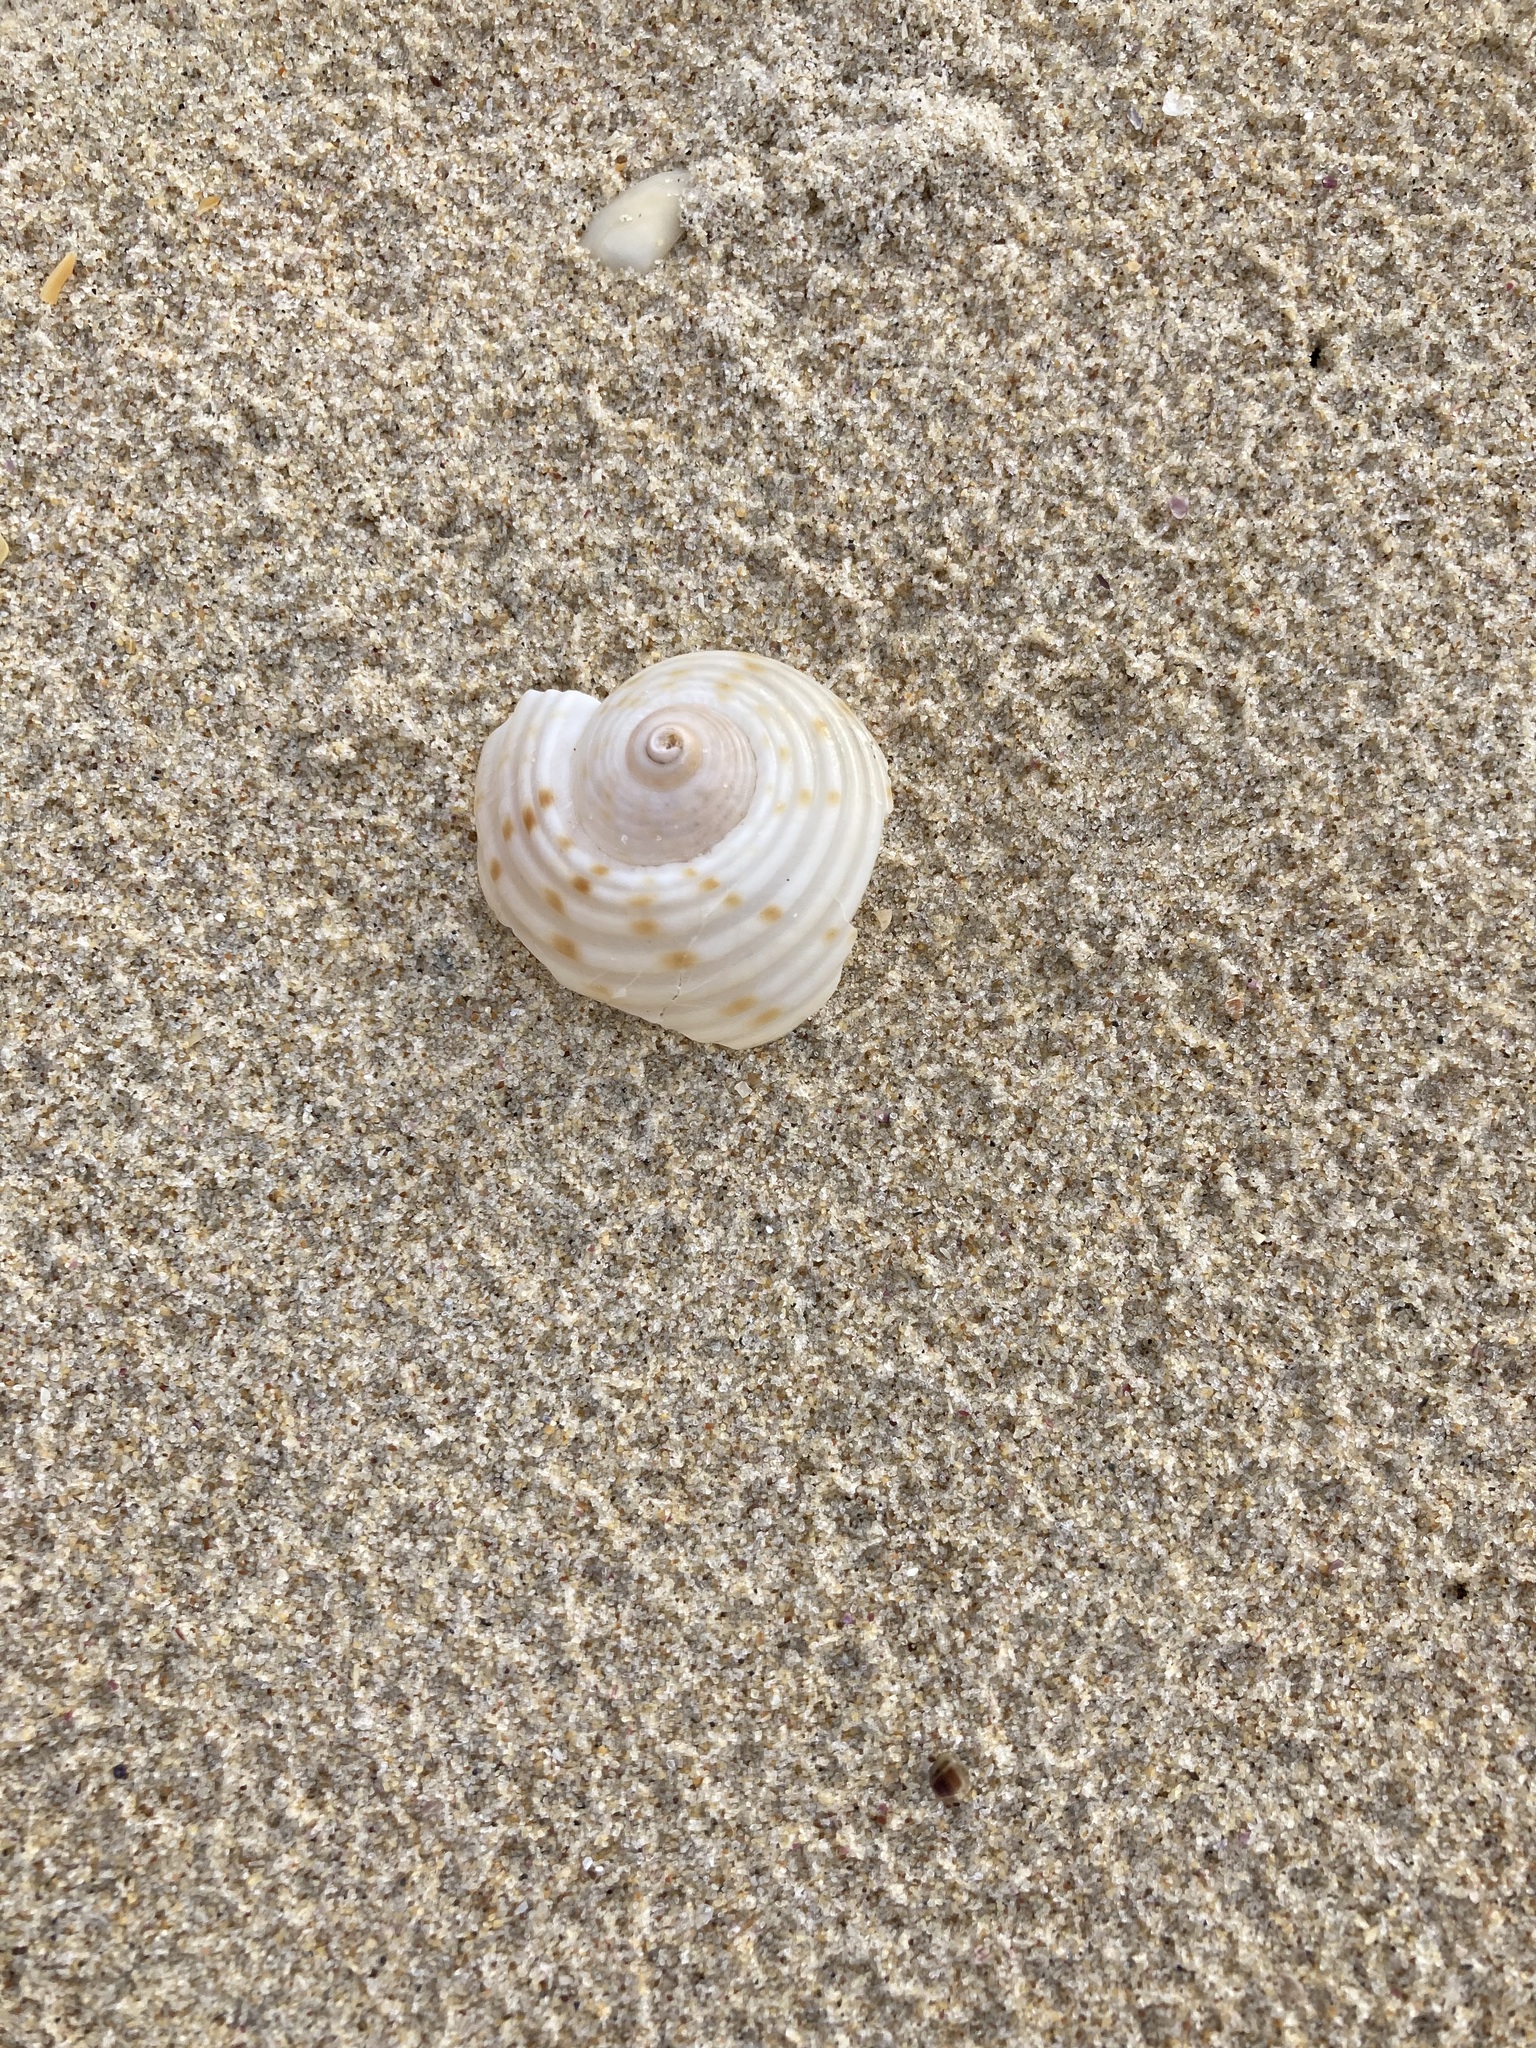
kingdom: Animalia
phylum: Mollusca
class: Gastropoda
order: Littorinimorpha
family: Tonnidae
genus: Tonna
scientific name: Tonna tankervillii
